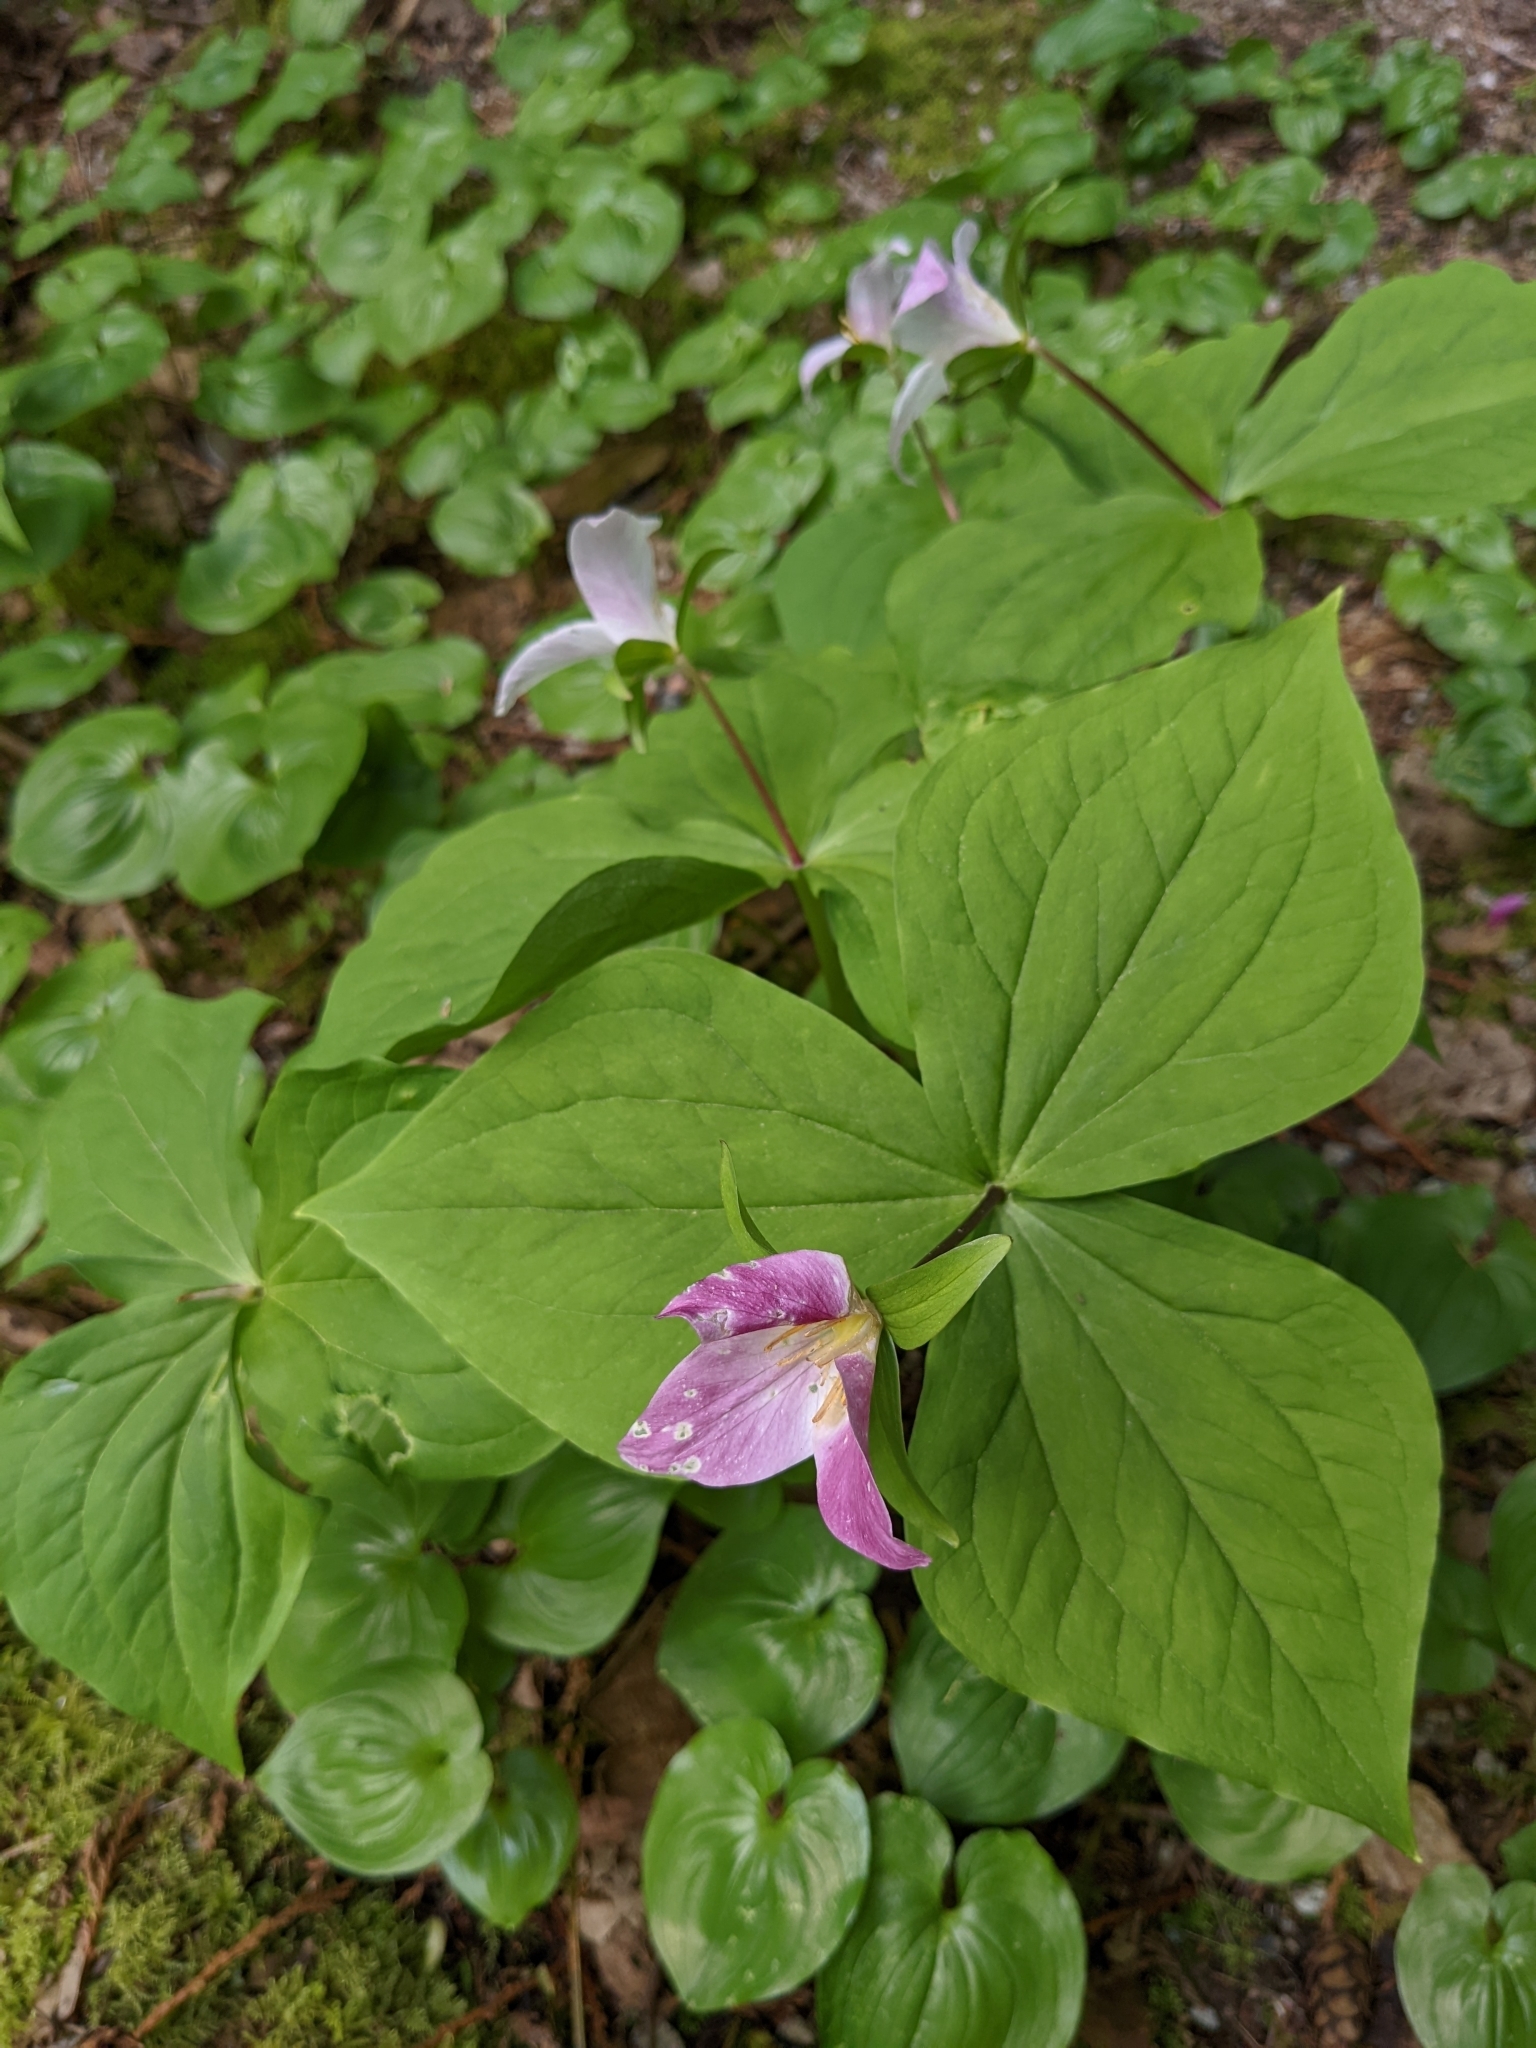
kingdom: Plantae
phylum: Tracheophyta
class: Liliopsida
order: Liliales
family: Melanthiaceae
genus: Trillium
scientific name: Trillium ovatum
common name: Pacific trillium
